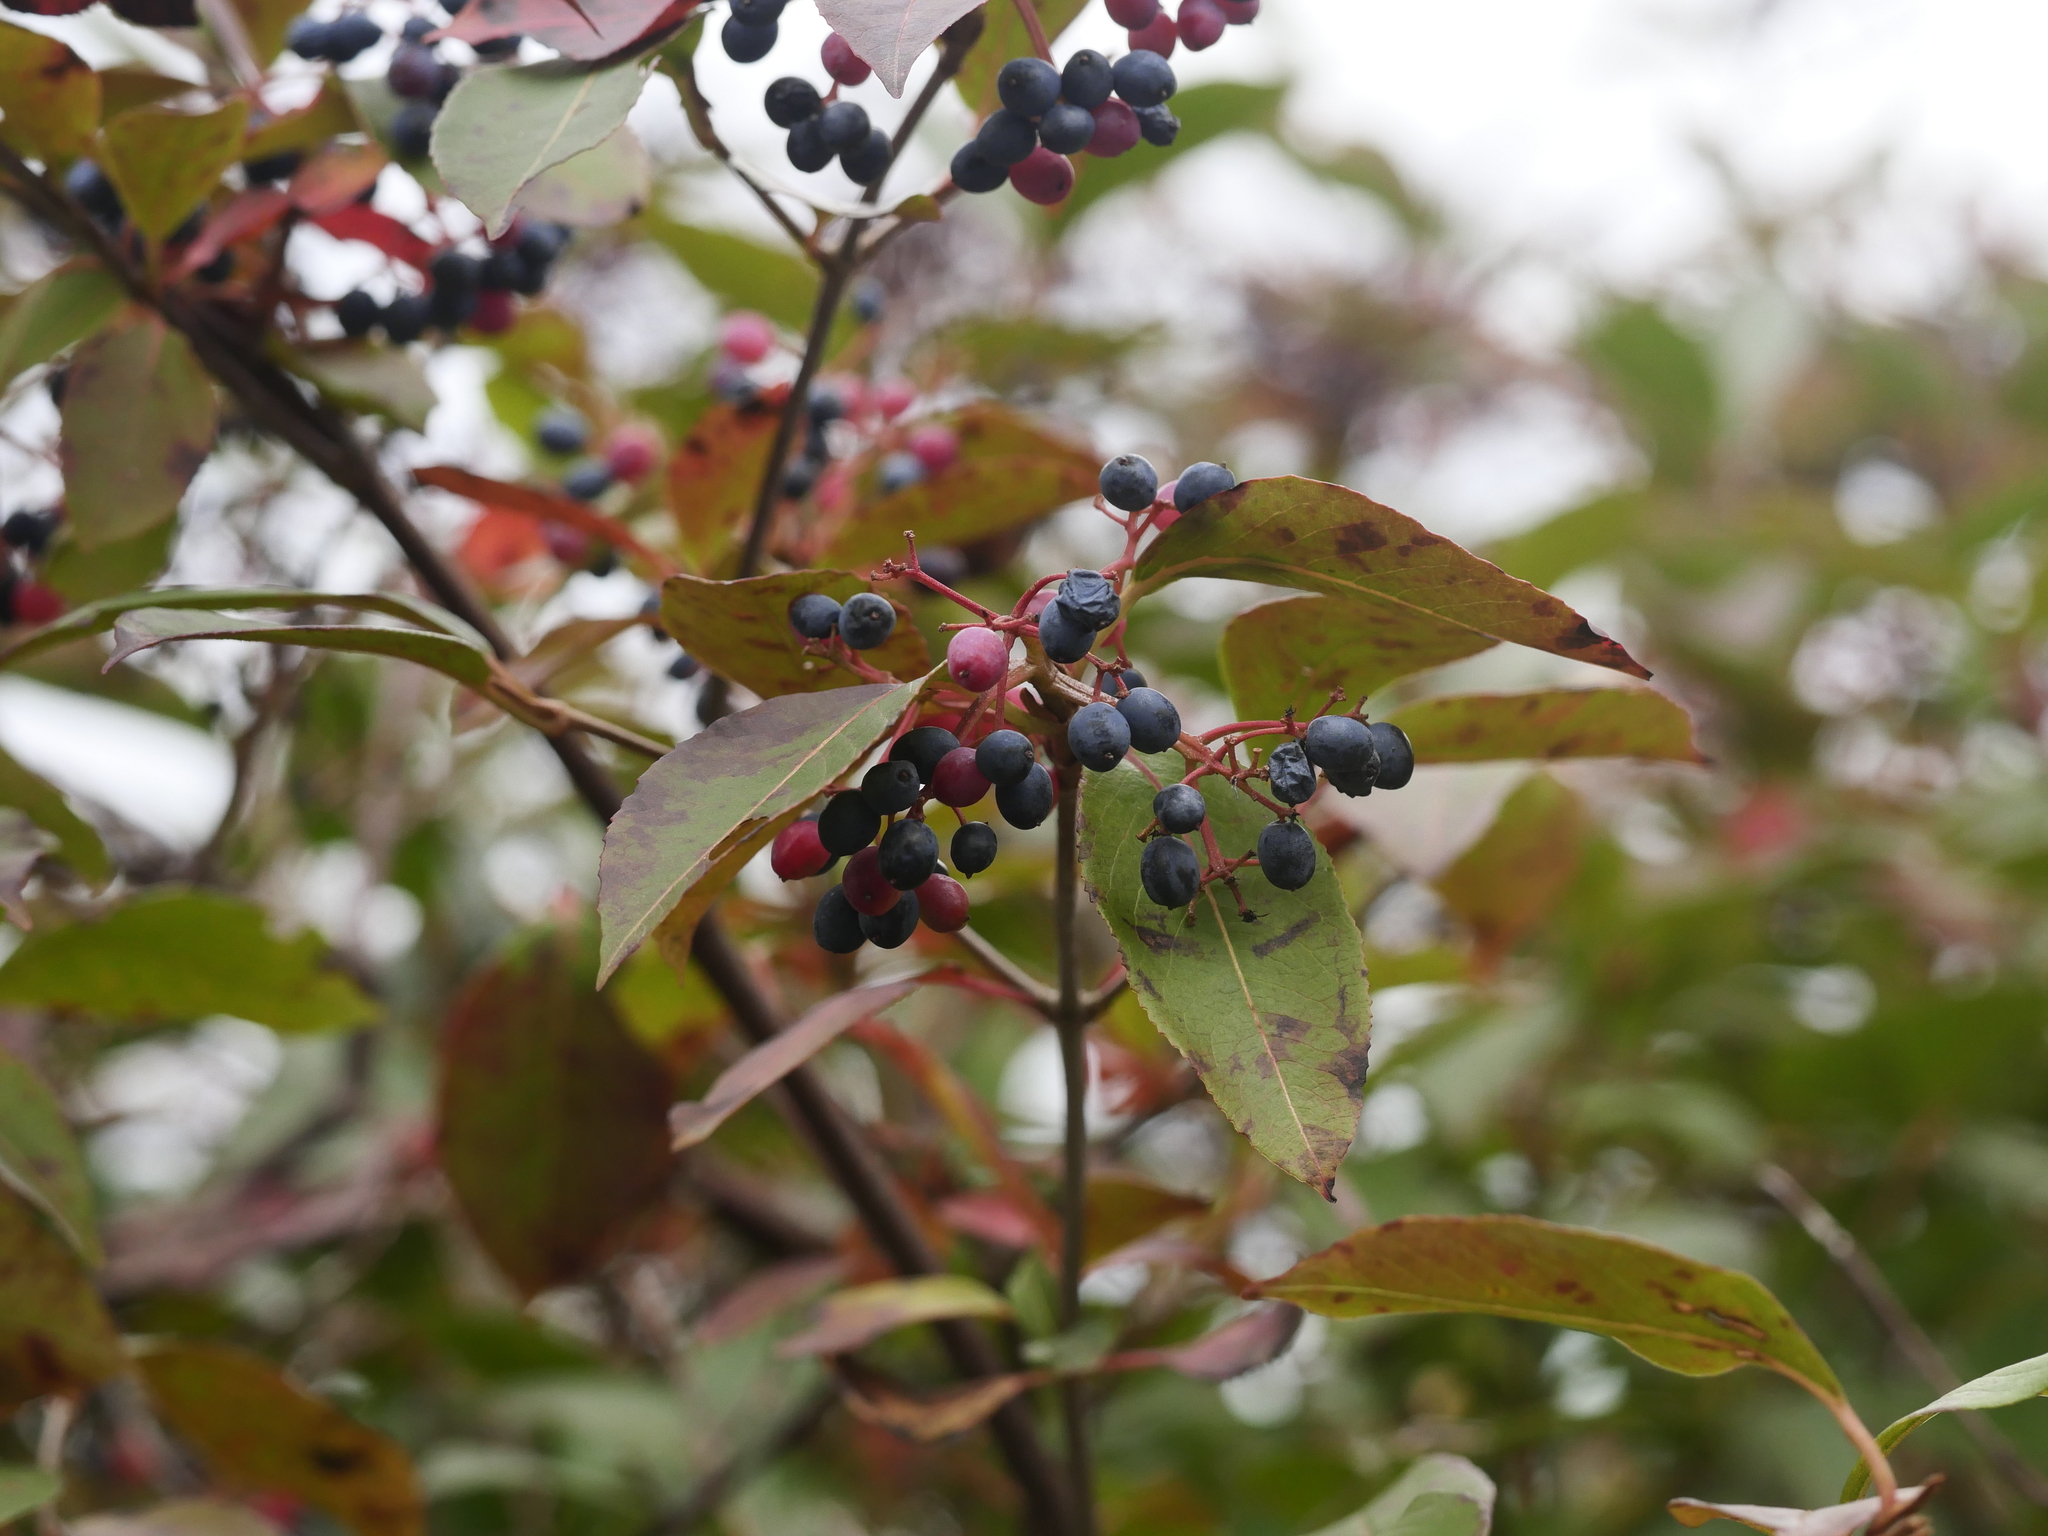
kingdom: Plantae
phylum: Tracheophyta
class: Magnoliopsida
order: Dipsacales
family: Viburnaceae
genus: Viburnum
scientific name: Viburnum cassinoides
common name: Swamp haw
